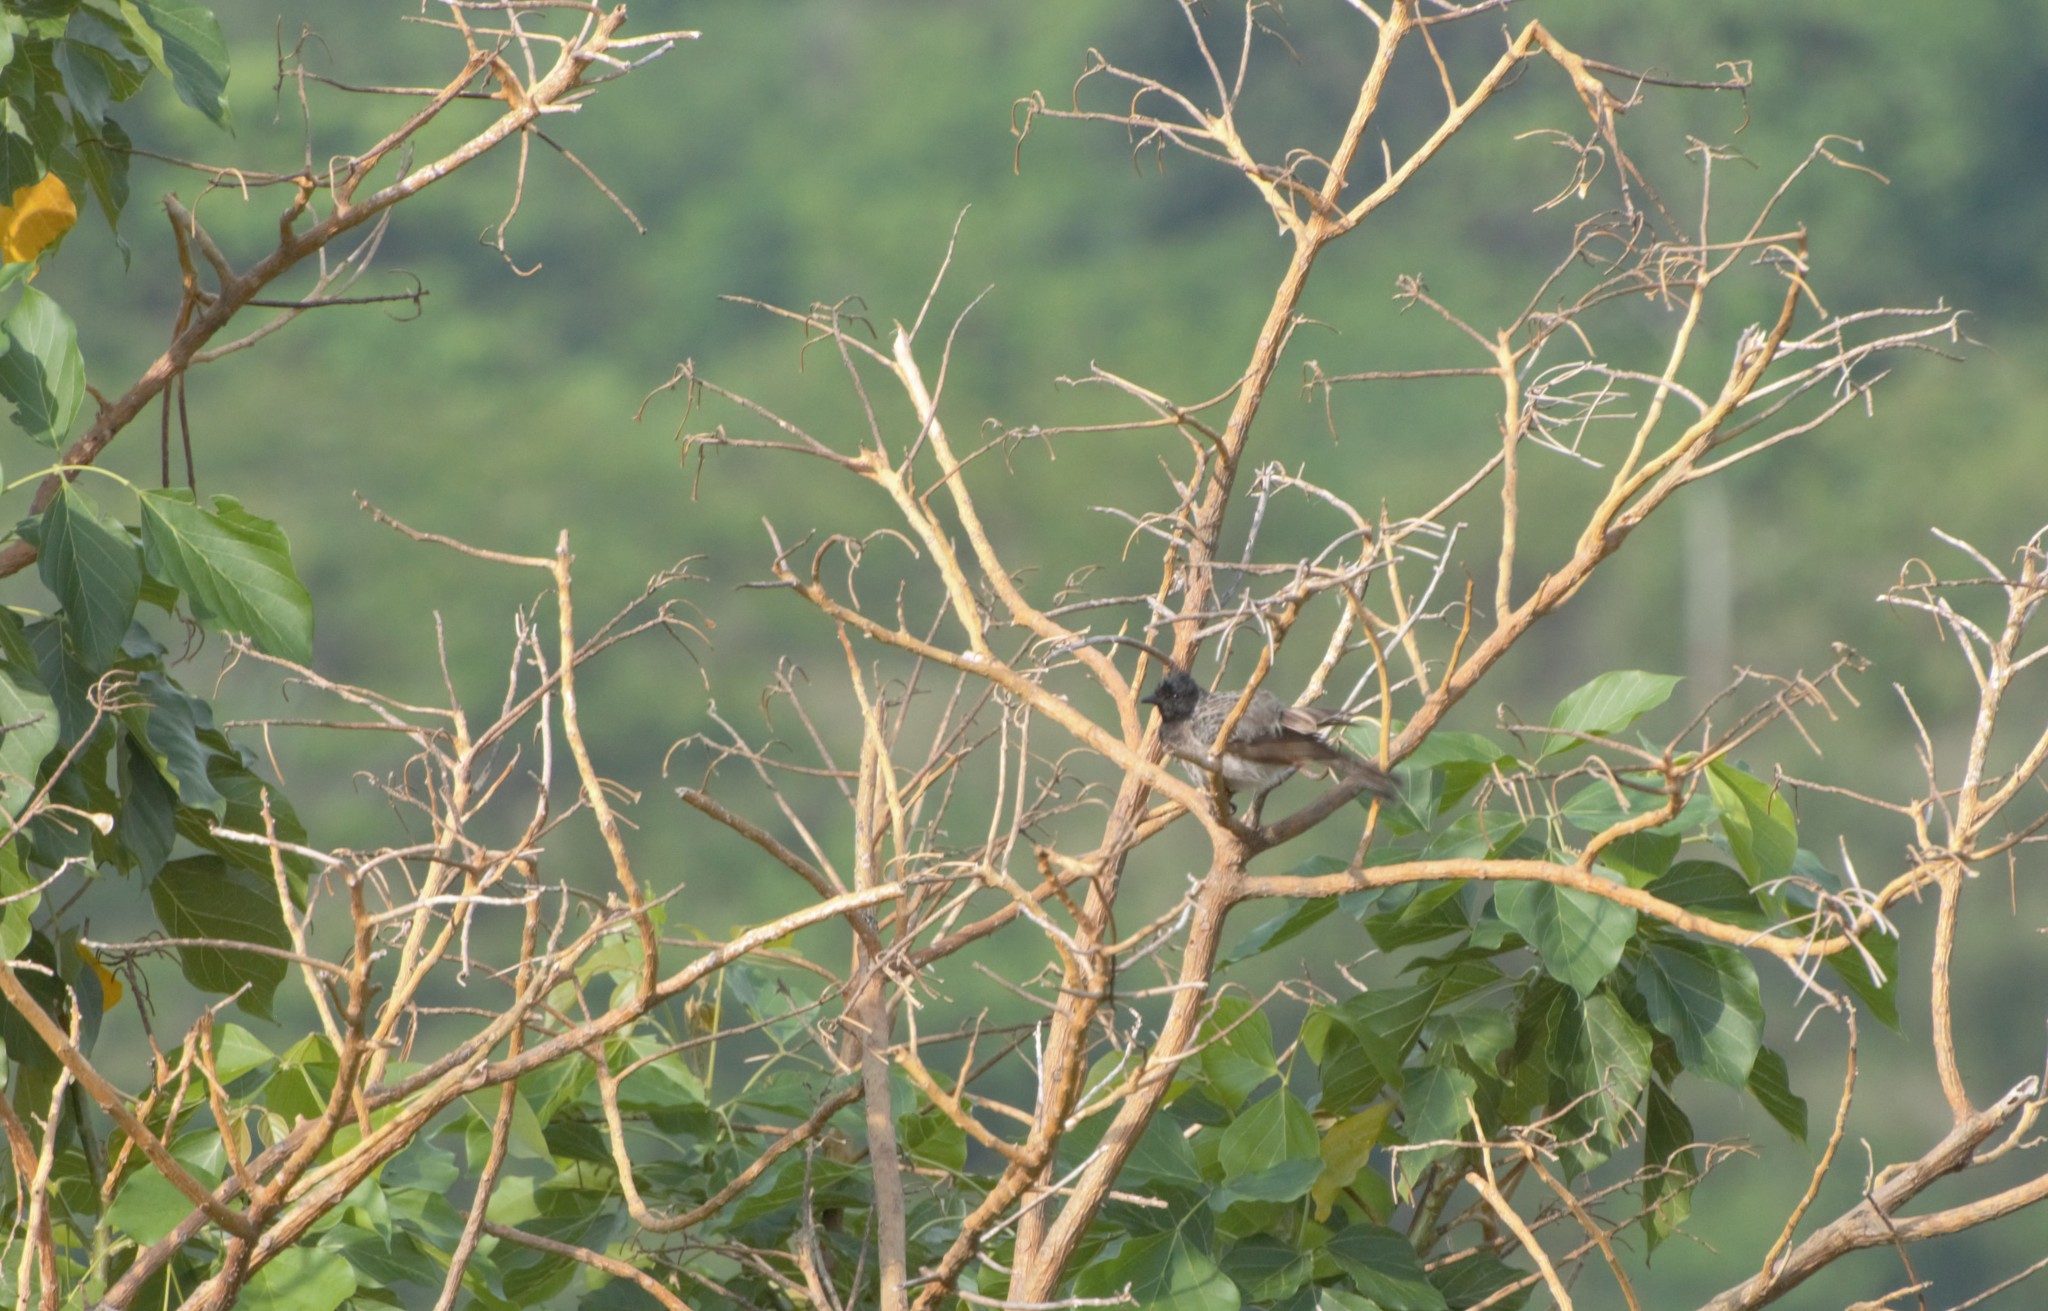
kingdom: Animalia
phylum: Chordata
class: Aves
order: Passeriformes
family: Pycnonotidae
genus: Pycnonotus
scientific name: Pycnonotus cafer
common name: Red-vented bulbul
